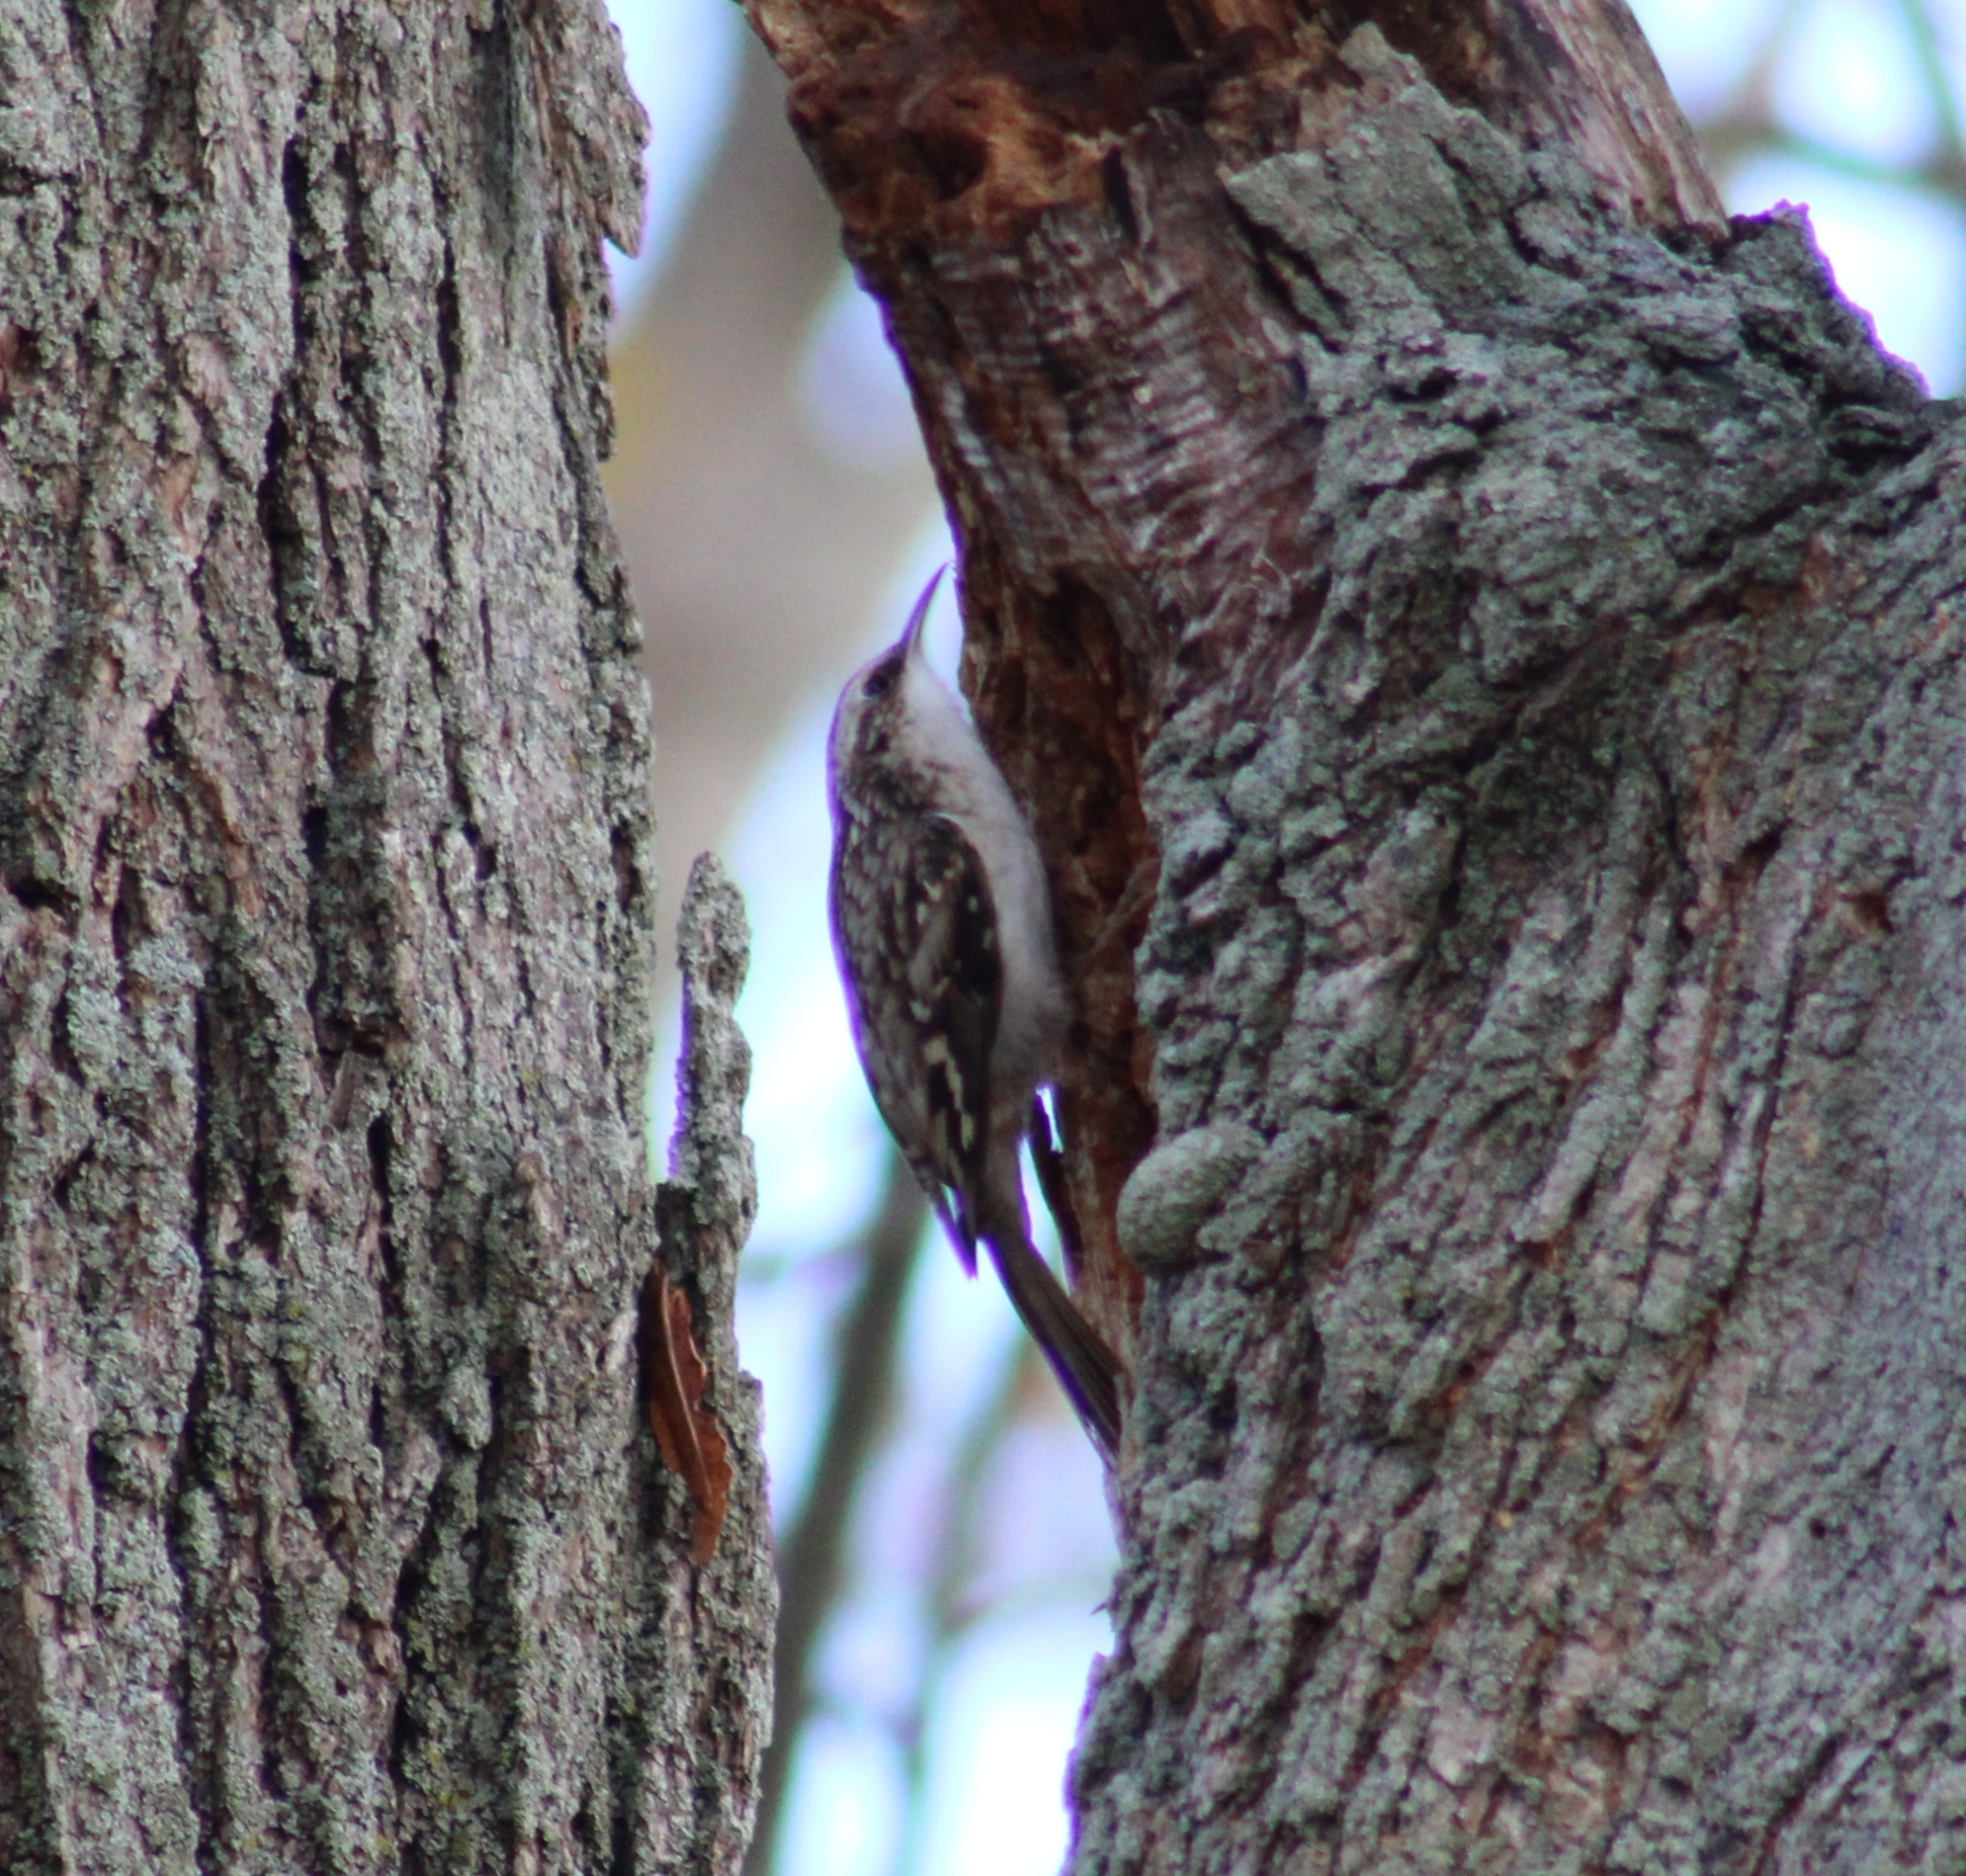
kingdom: Animalia
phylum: Chordata
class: Aves
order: Passeriformes
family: Certhiidae
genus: Certhia
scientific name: Certhia americana
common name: Brown creeper
